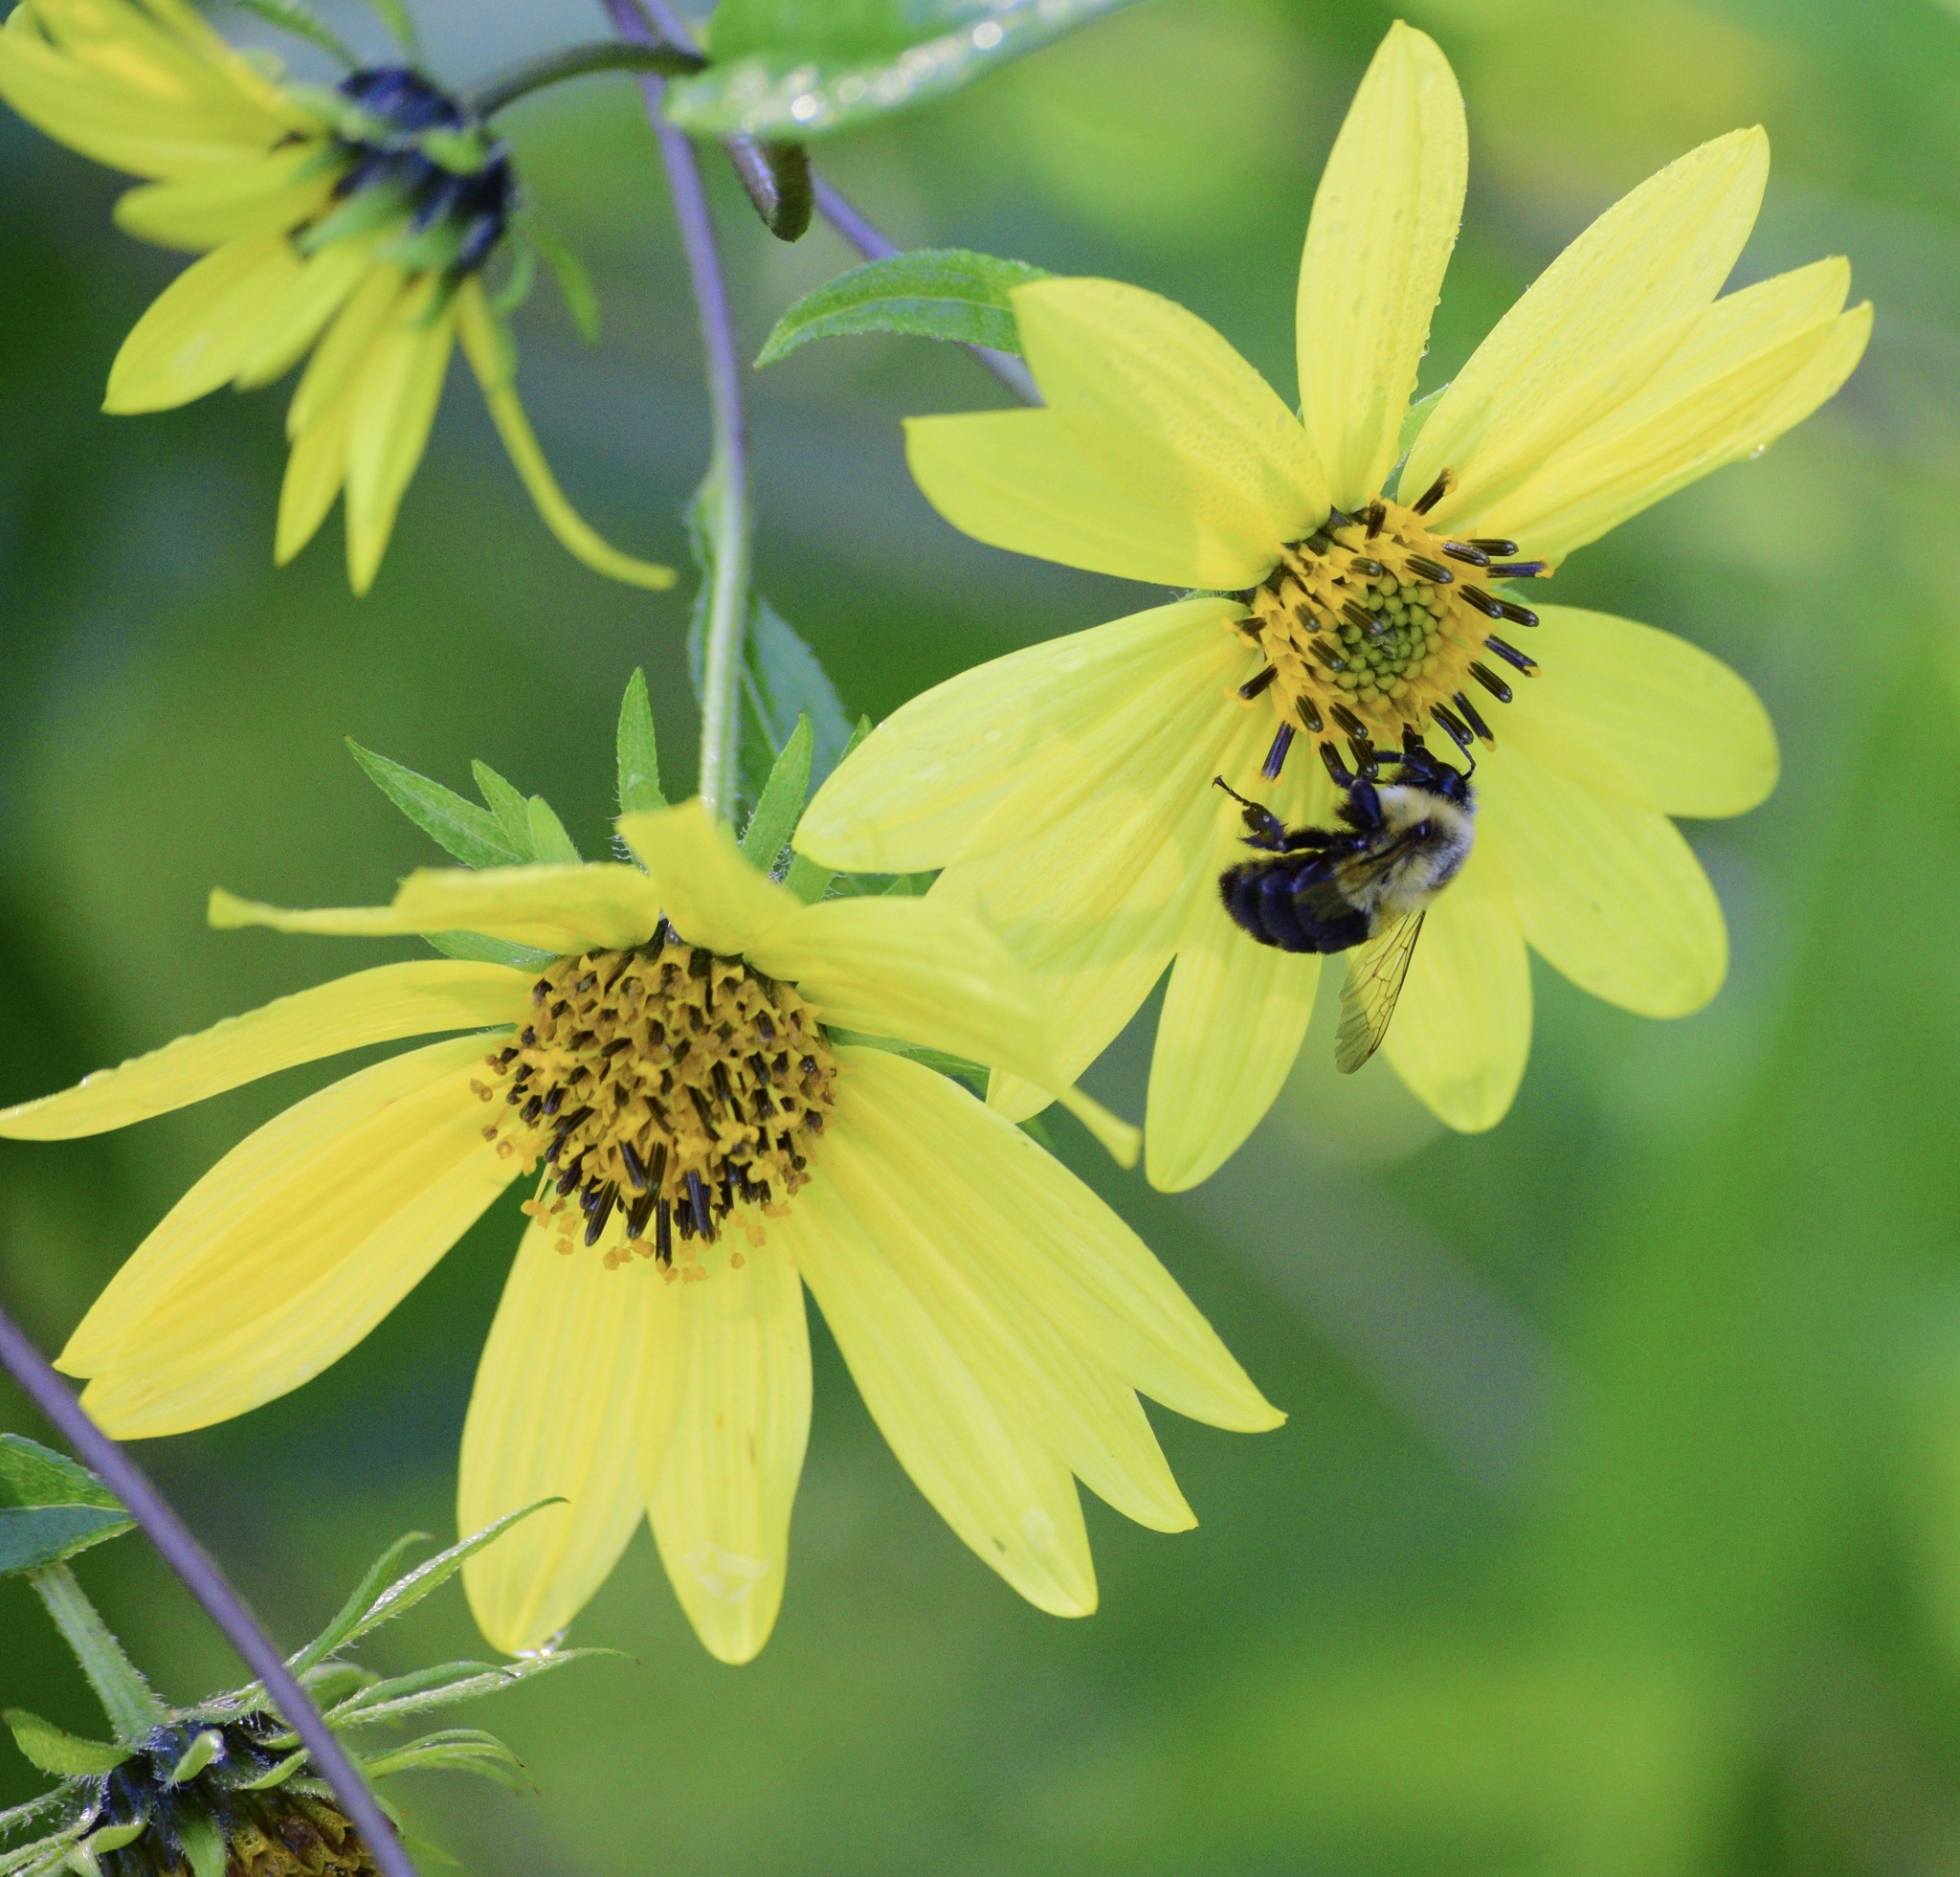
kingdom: Animalia
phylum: Arthropoda
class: Insecta
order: Hymenoptera
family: Apidae
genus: Bombus
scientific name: Bombus impatiens
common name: Common eastern bumble bee
